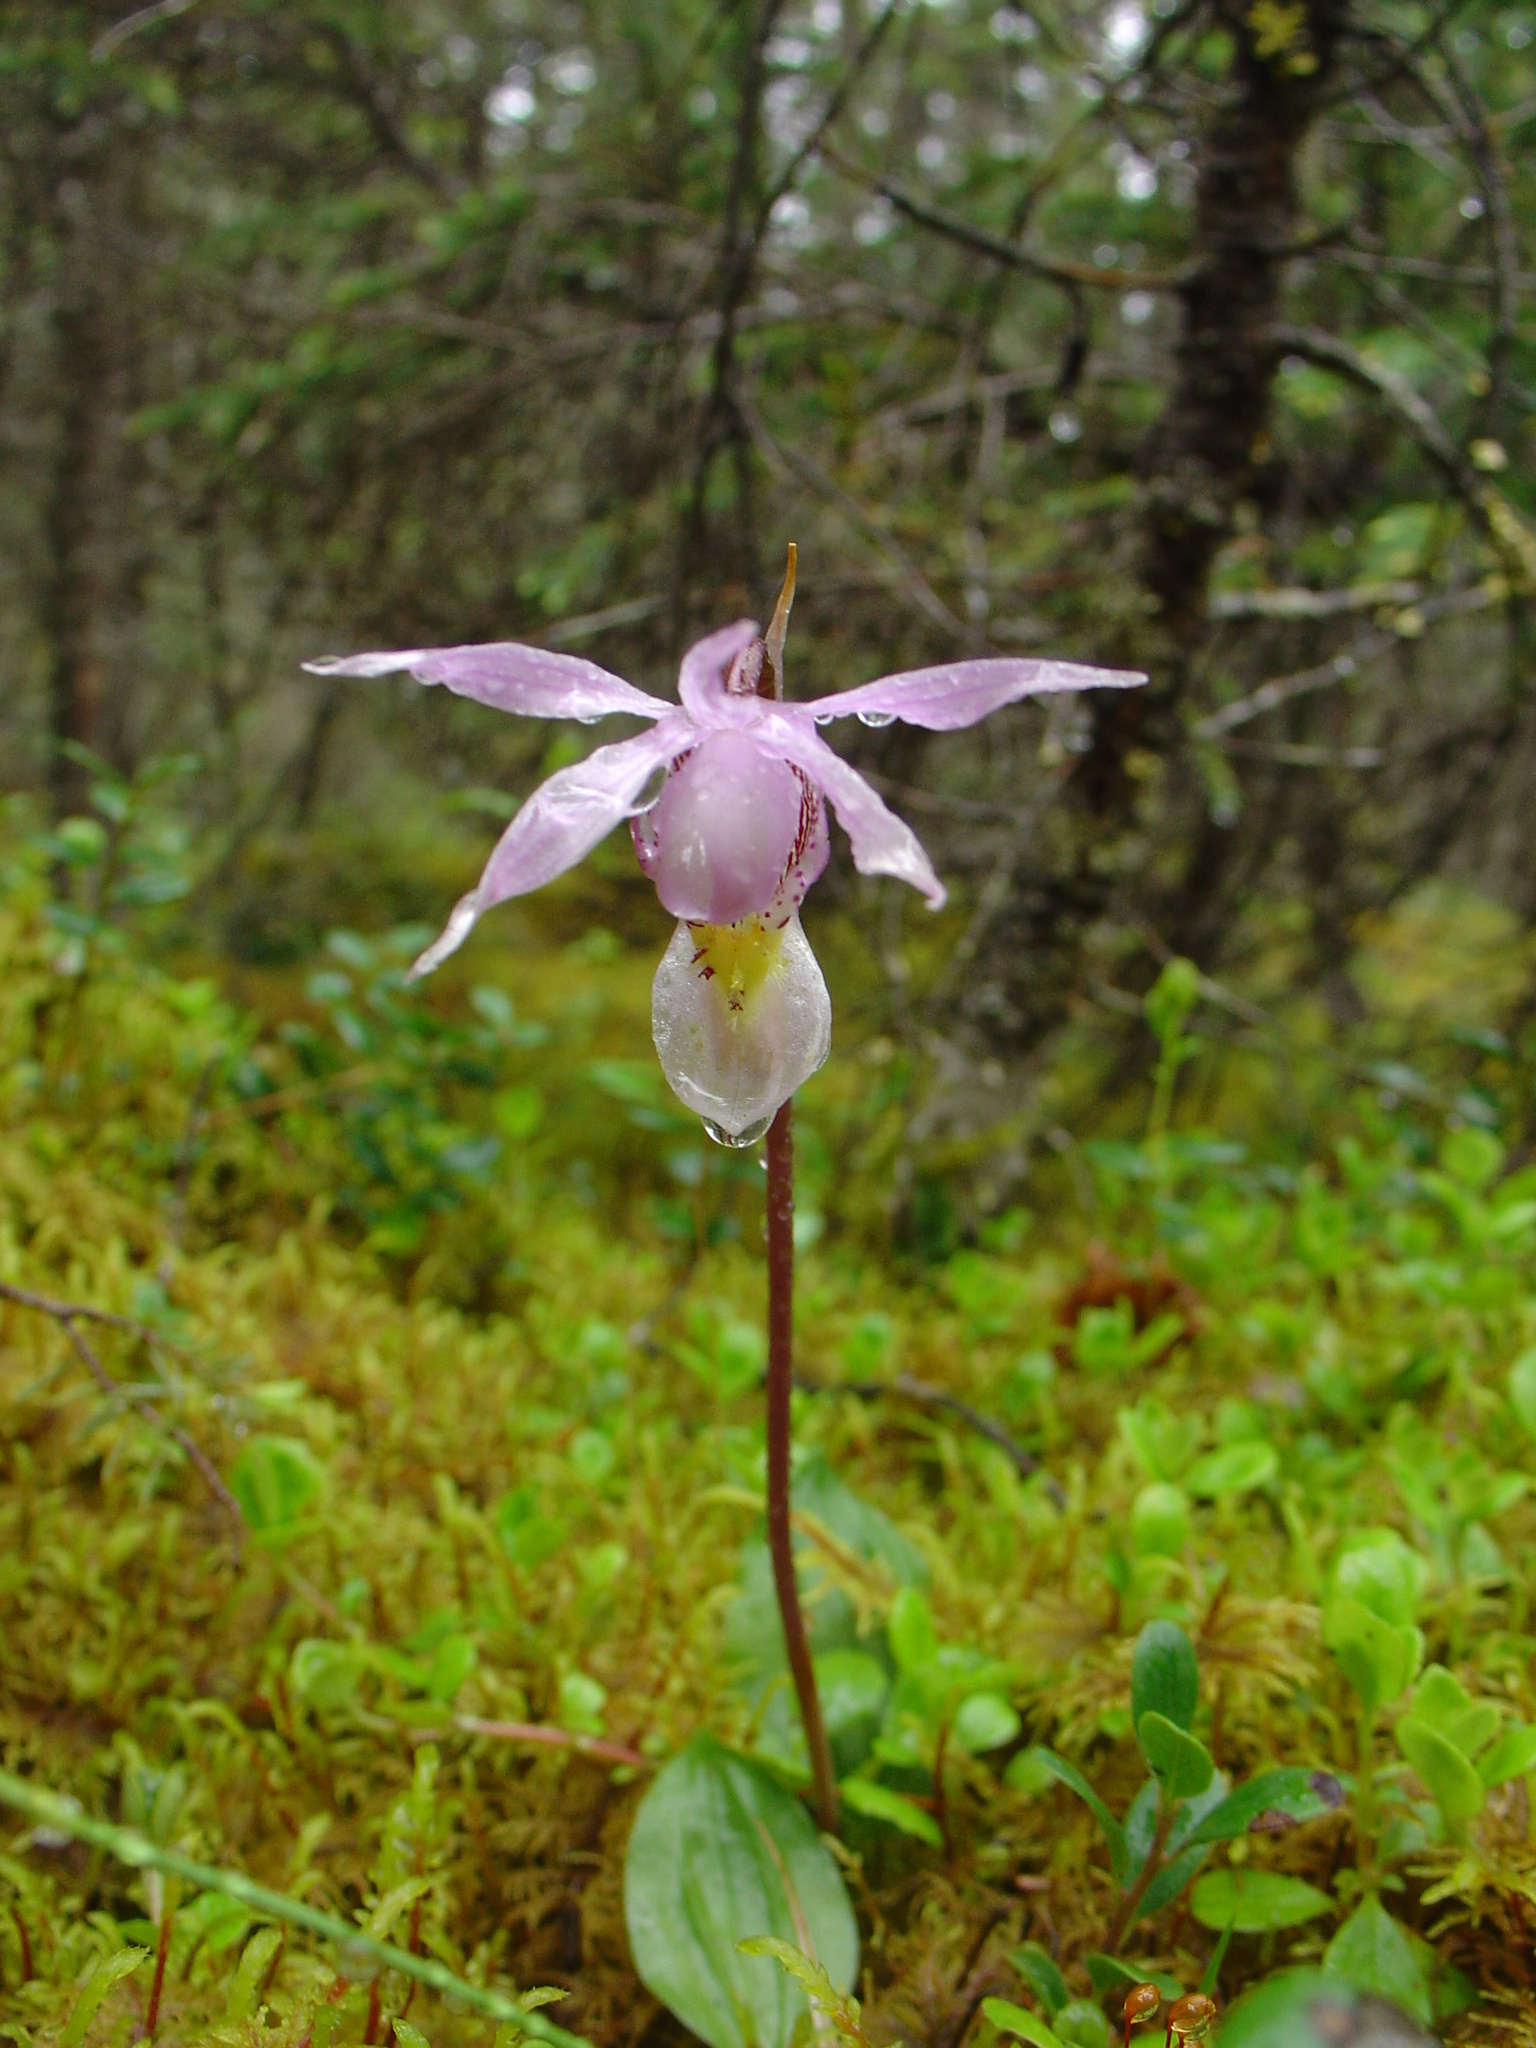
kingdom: Plantae
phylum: Tracheophyta
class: Liliopsida
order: Asparagales
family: Orchidaceae
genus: Calypso
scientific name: Calypso bulbosa
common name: Calypso
